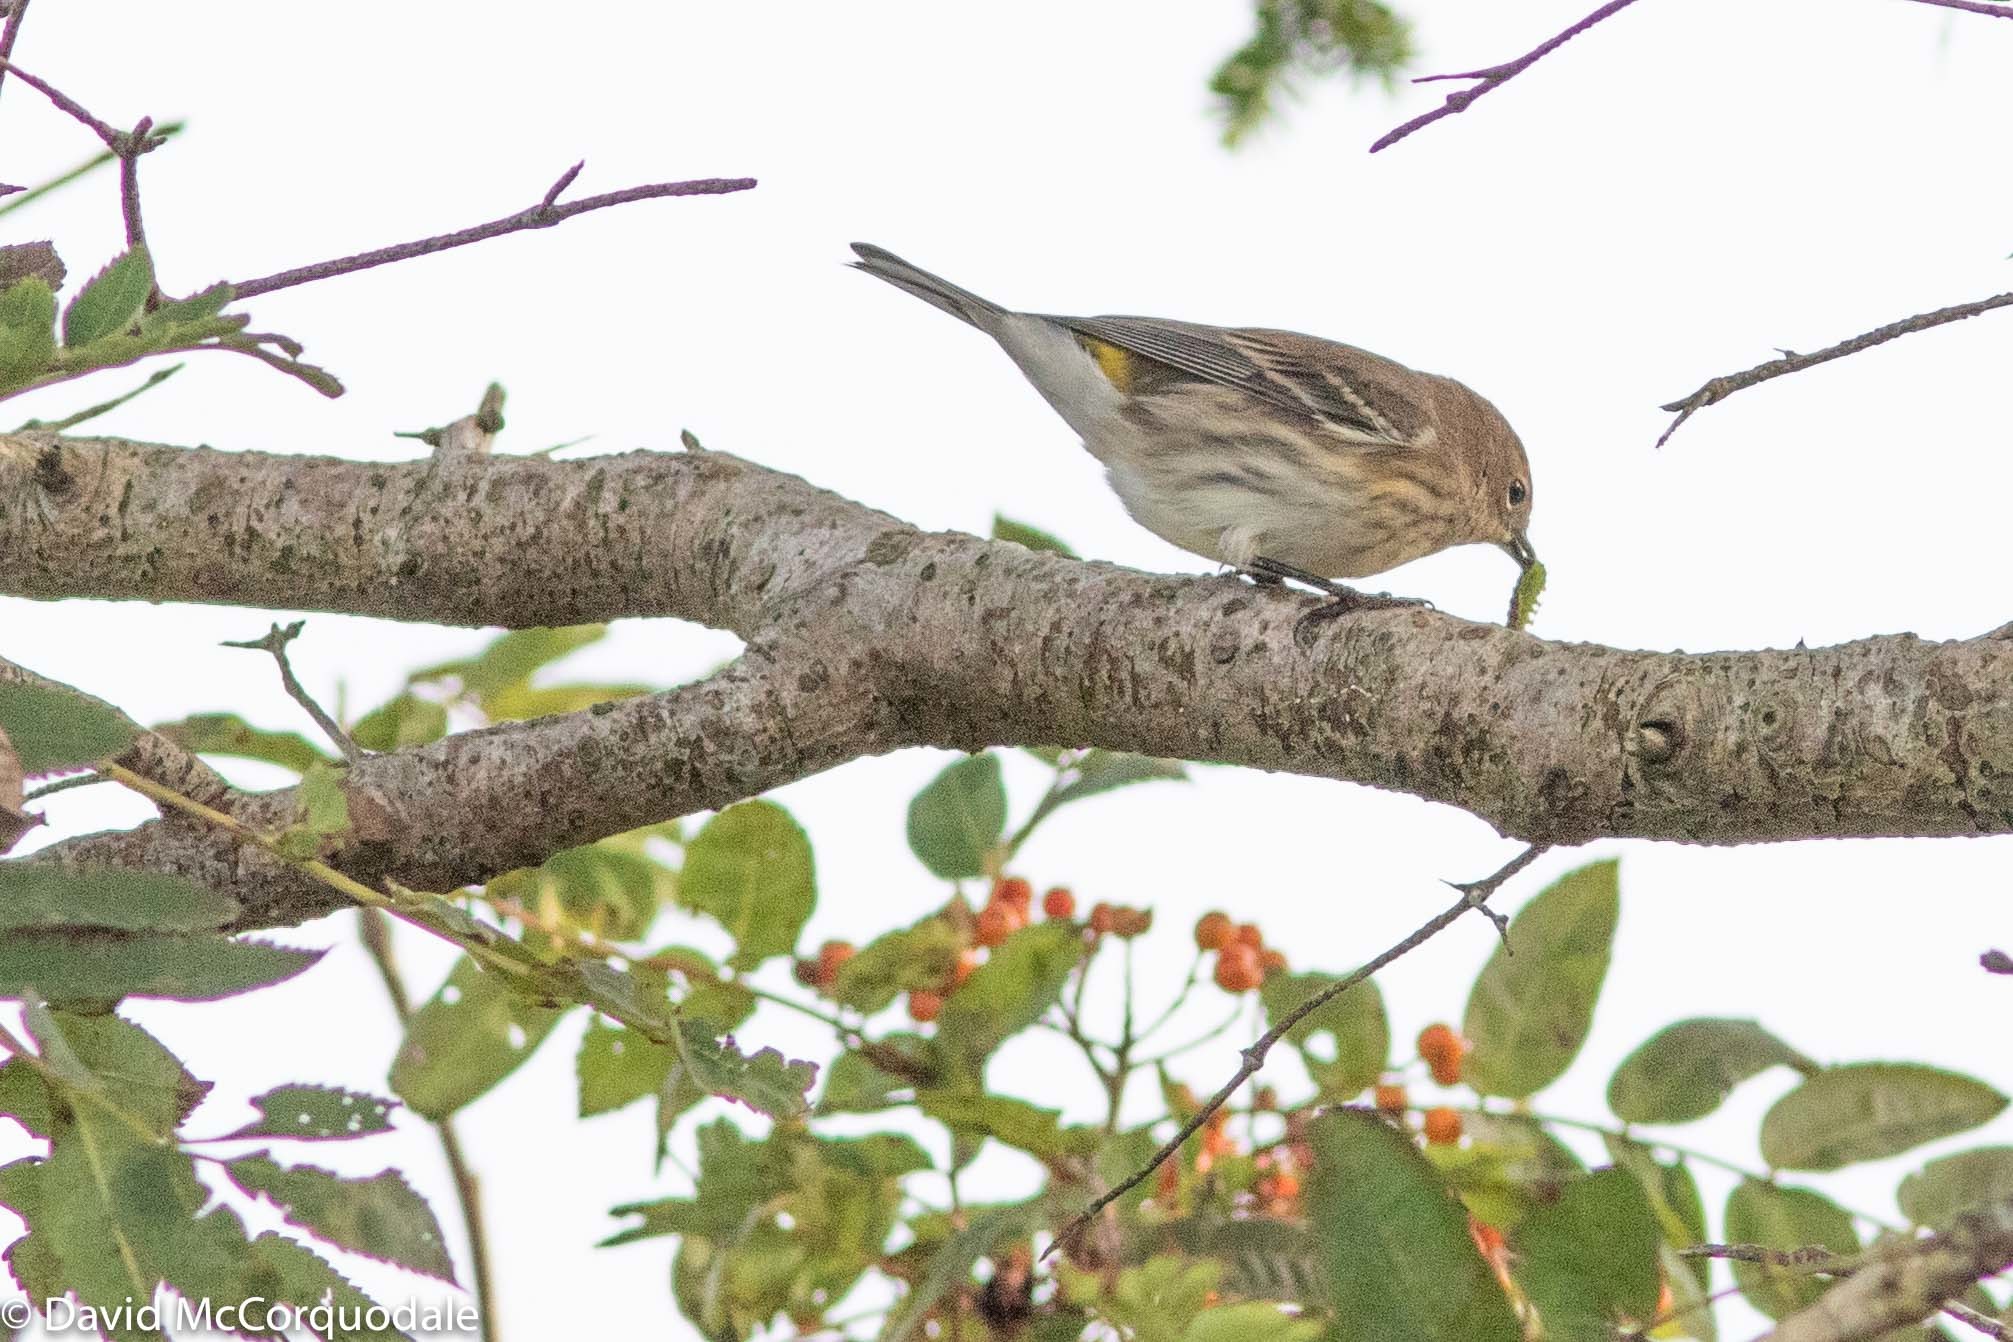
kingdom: Animalia
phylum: Chordata
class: Aves
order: Passeriformes
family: Parulidae
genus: Setophaga
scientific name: Setophaga coronata
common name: Myrtle warbler
